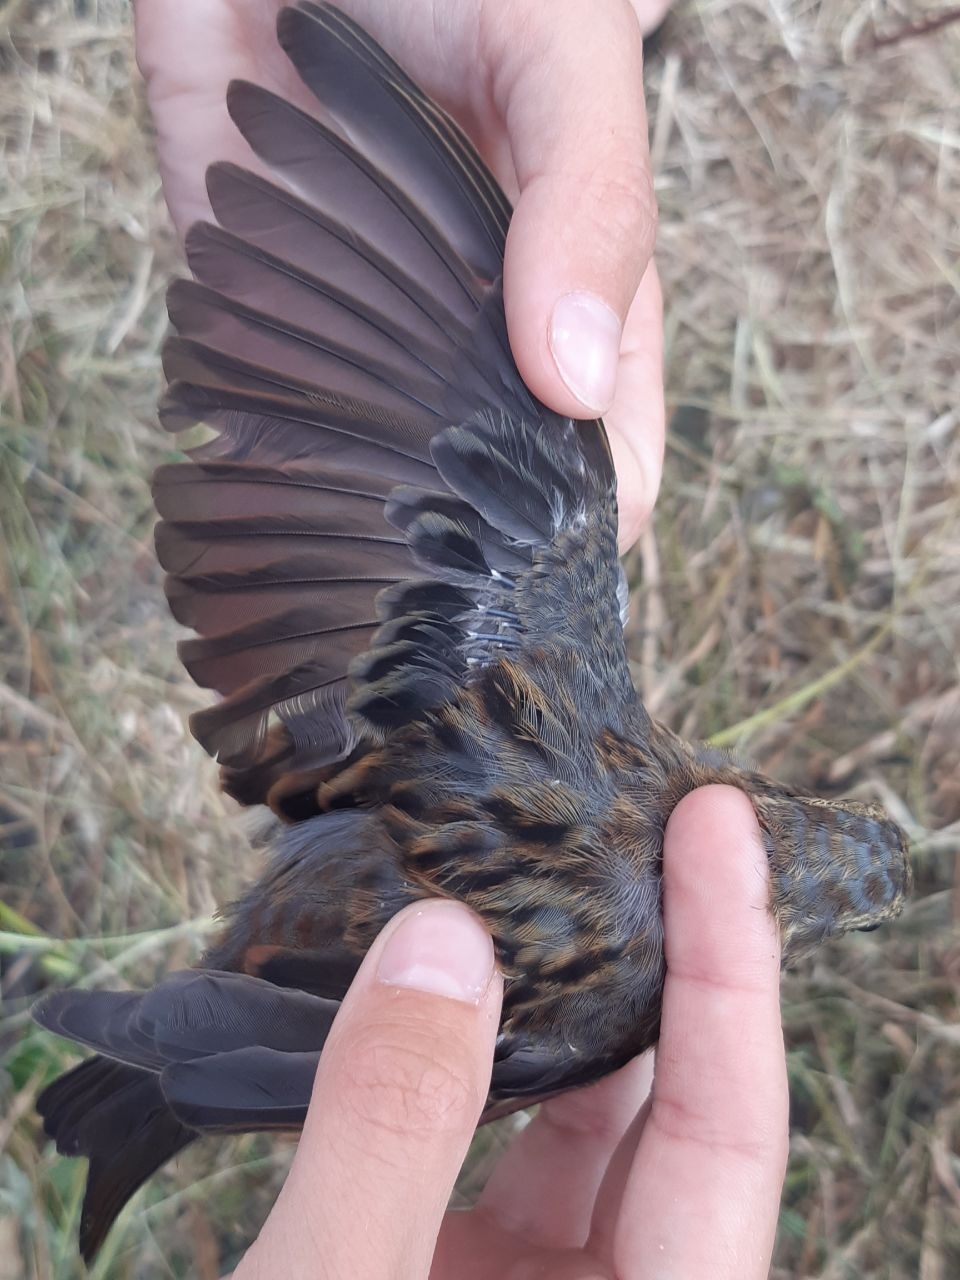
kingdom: Animalia
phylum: Chordata
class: Aves
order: Passeriformes
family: Emberizidae
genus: Emberiza
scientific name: Emberiza variabilis
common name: Gray bunting
